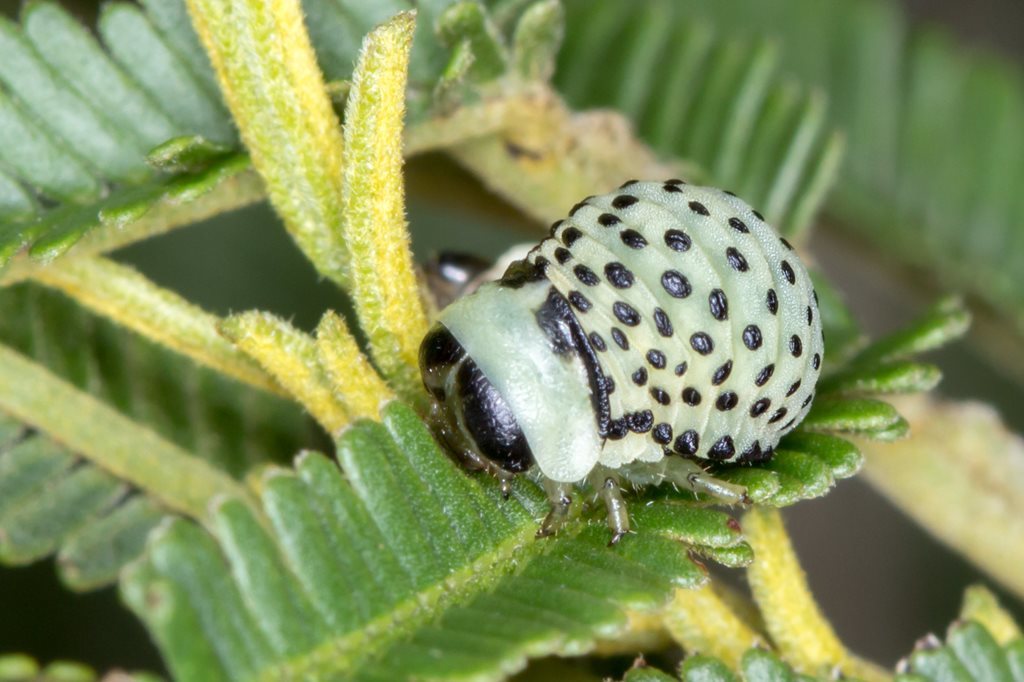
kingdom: Animalia
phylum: Arthropoda
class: Insecta
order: Coleoptera
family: Chrysomelidae
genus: Dicranosterna
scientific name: Dicranosterna
